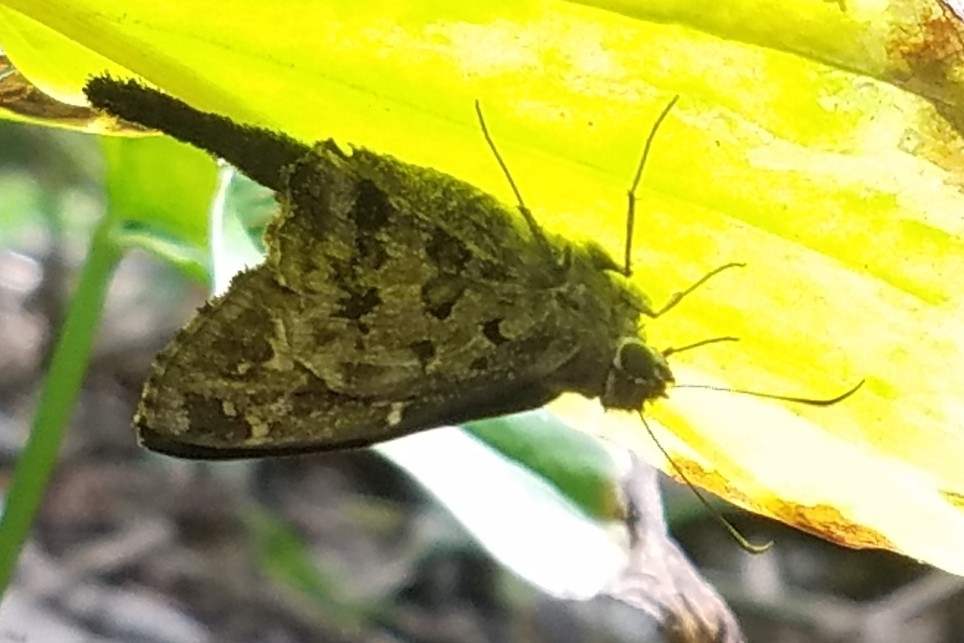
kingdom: Animalia
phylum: Arthropoda
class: Insecta
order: Lepidoptera
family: Hesperiidae
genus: Thorybes
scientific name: Thorybes
